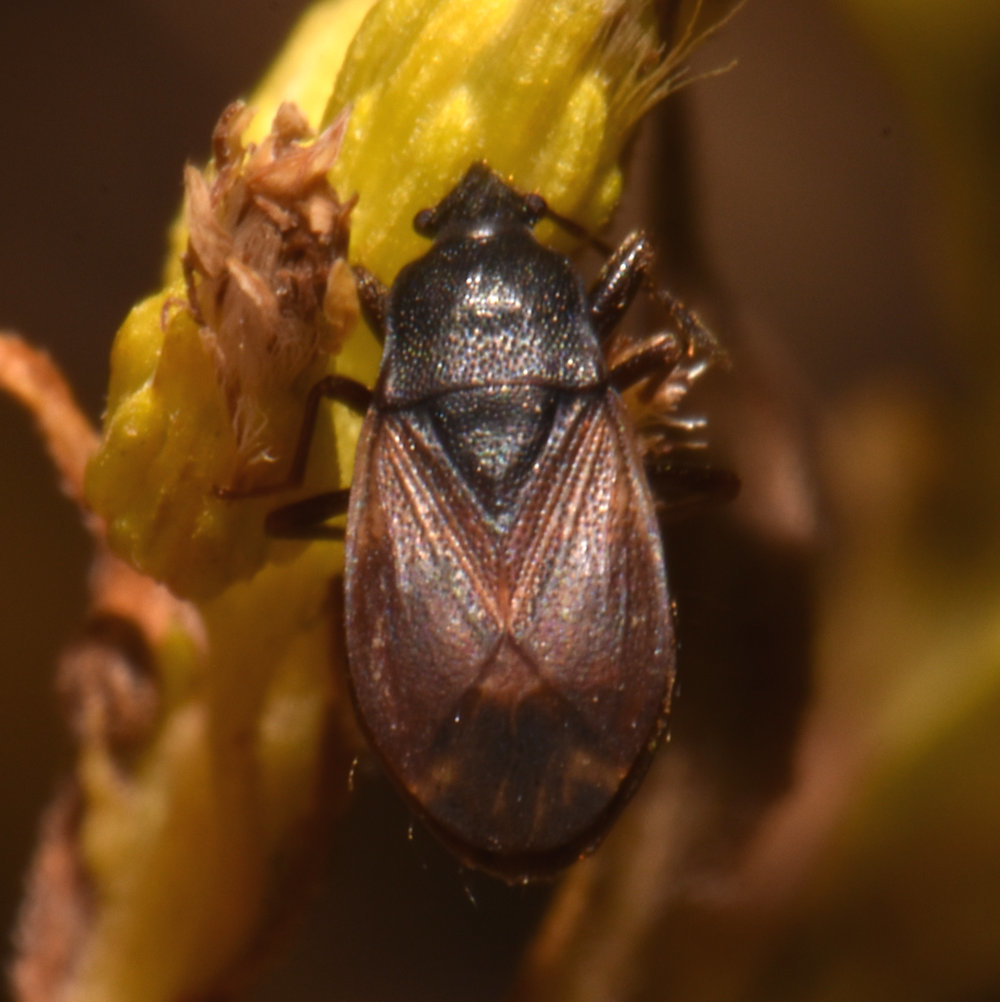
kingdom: Animalia
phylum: Arthropoda
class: Insecta
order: Hemiptera
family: Rhyparochromidae
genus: Drymus
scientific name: Drymus unus
